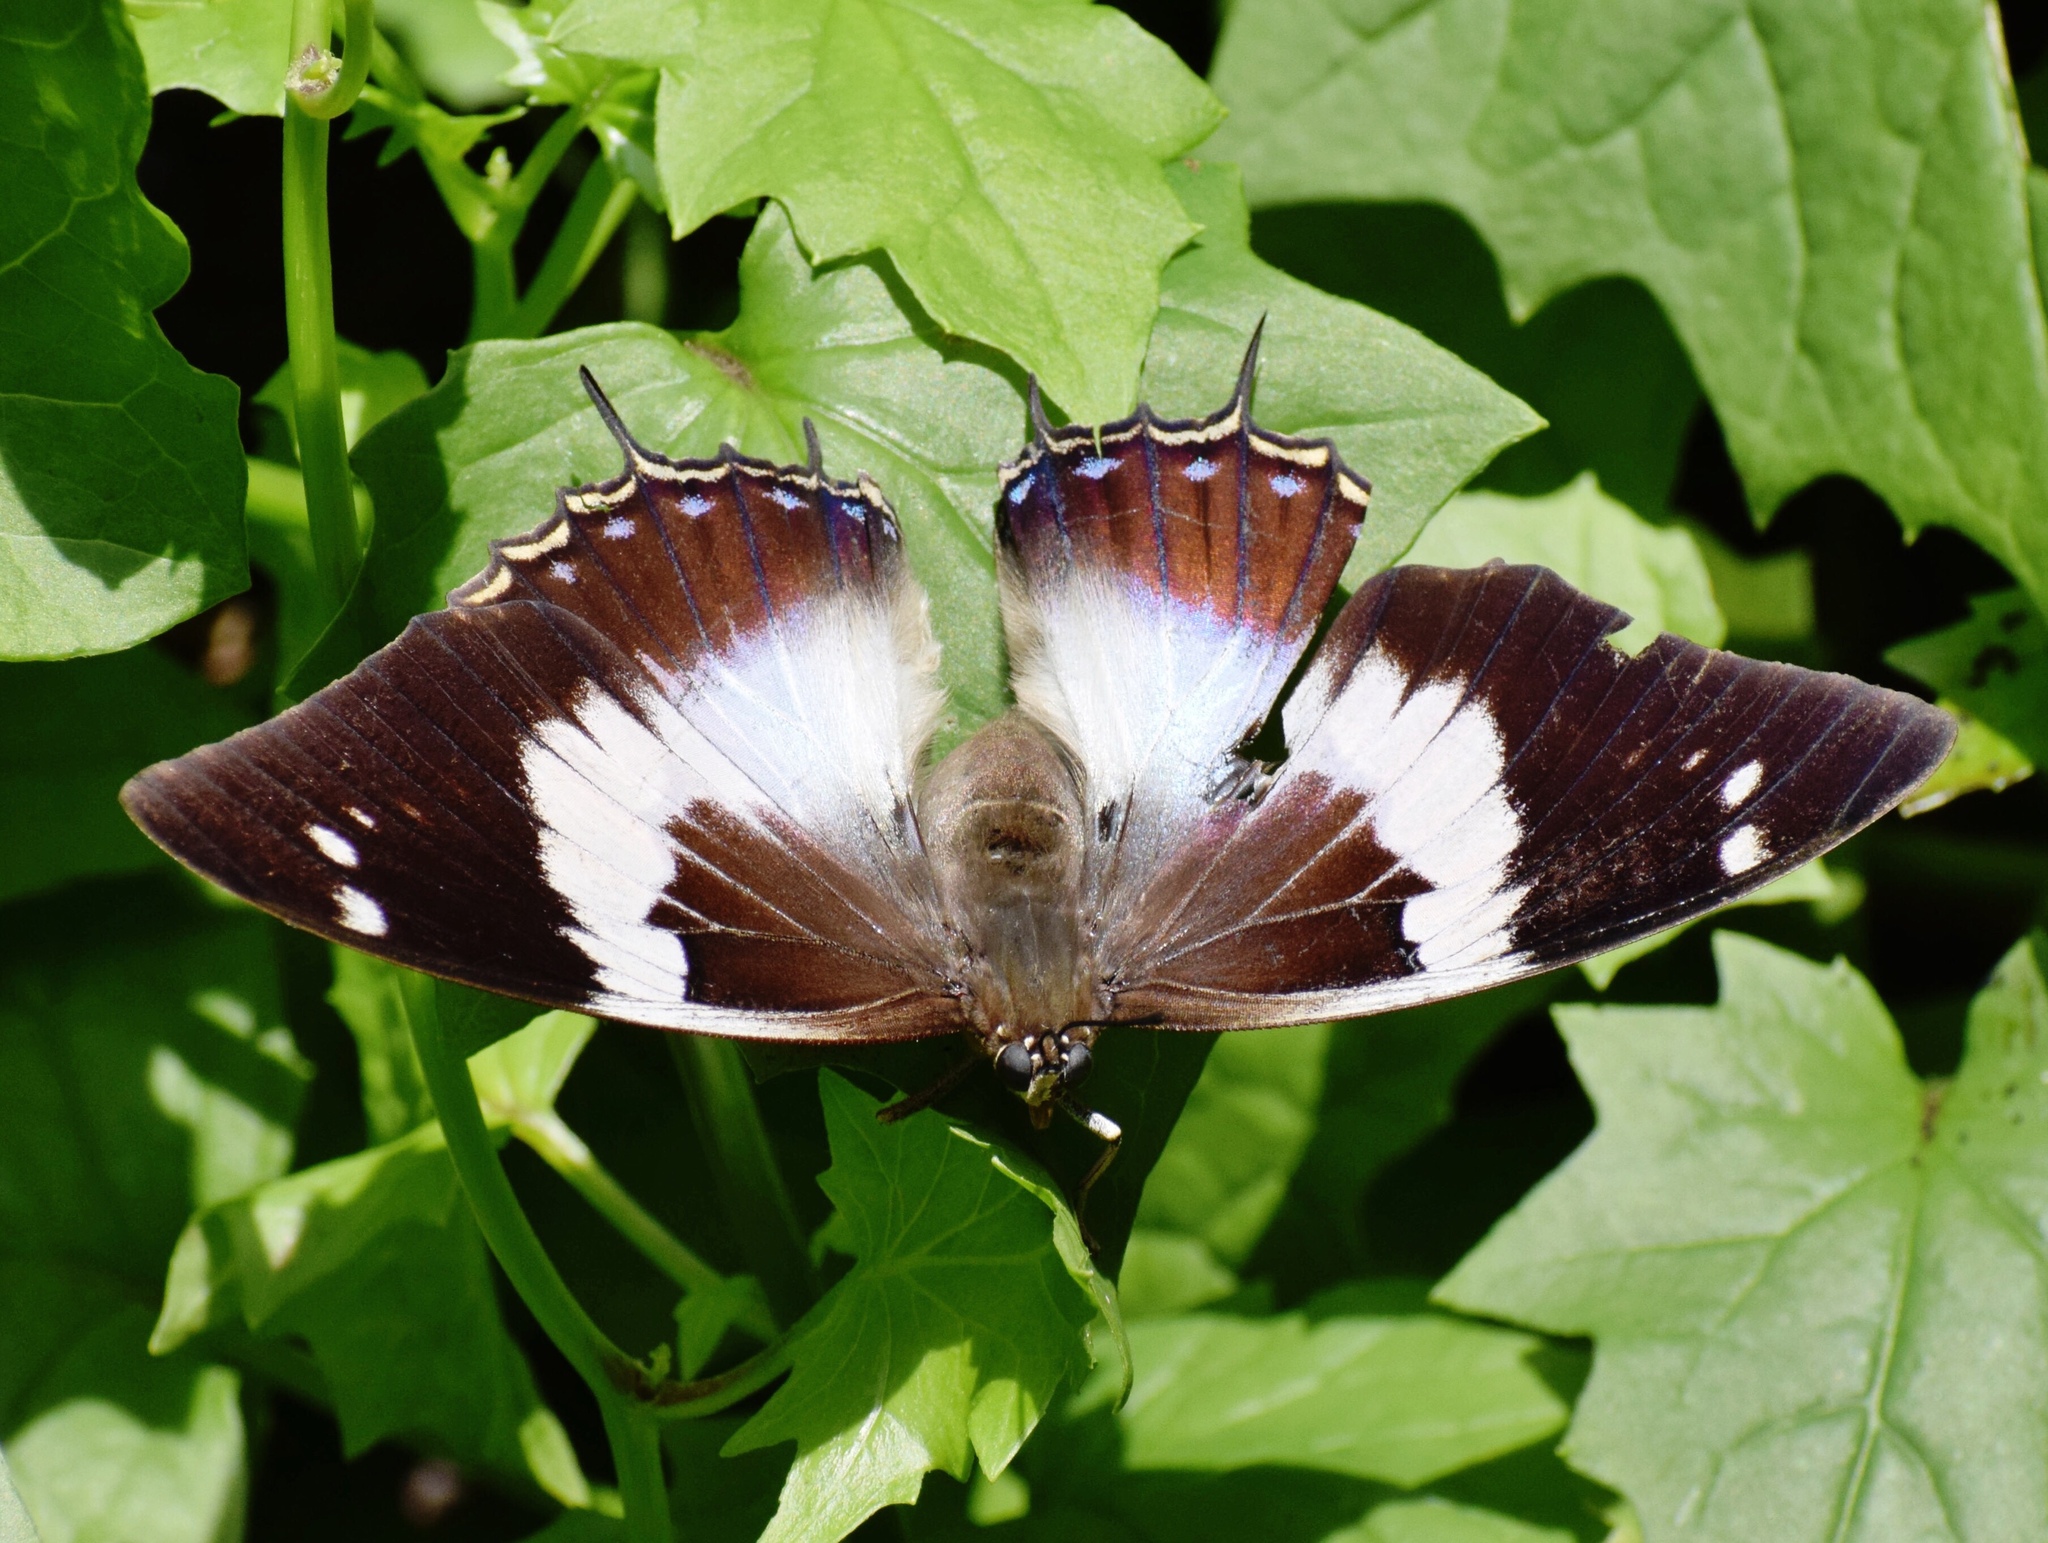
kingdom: Animalia
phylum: Arthropoda
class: Insecta
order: Lepidoptera
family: Nymphalidae
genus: Charaxes
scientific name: Charaxes cithaeron
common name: Blue-spotted charaxes
